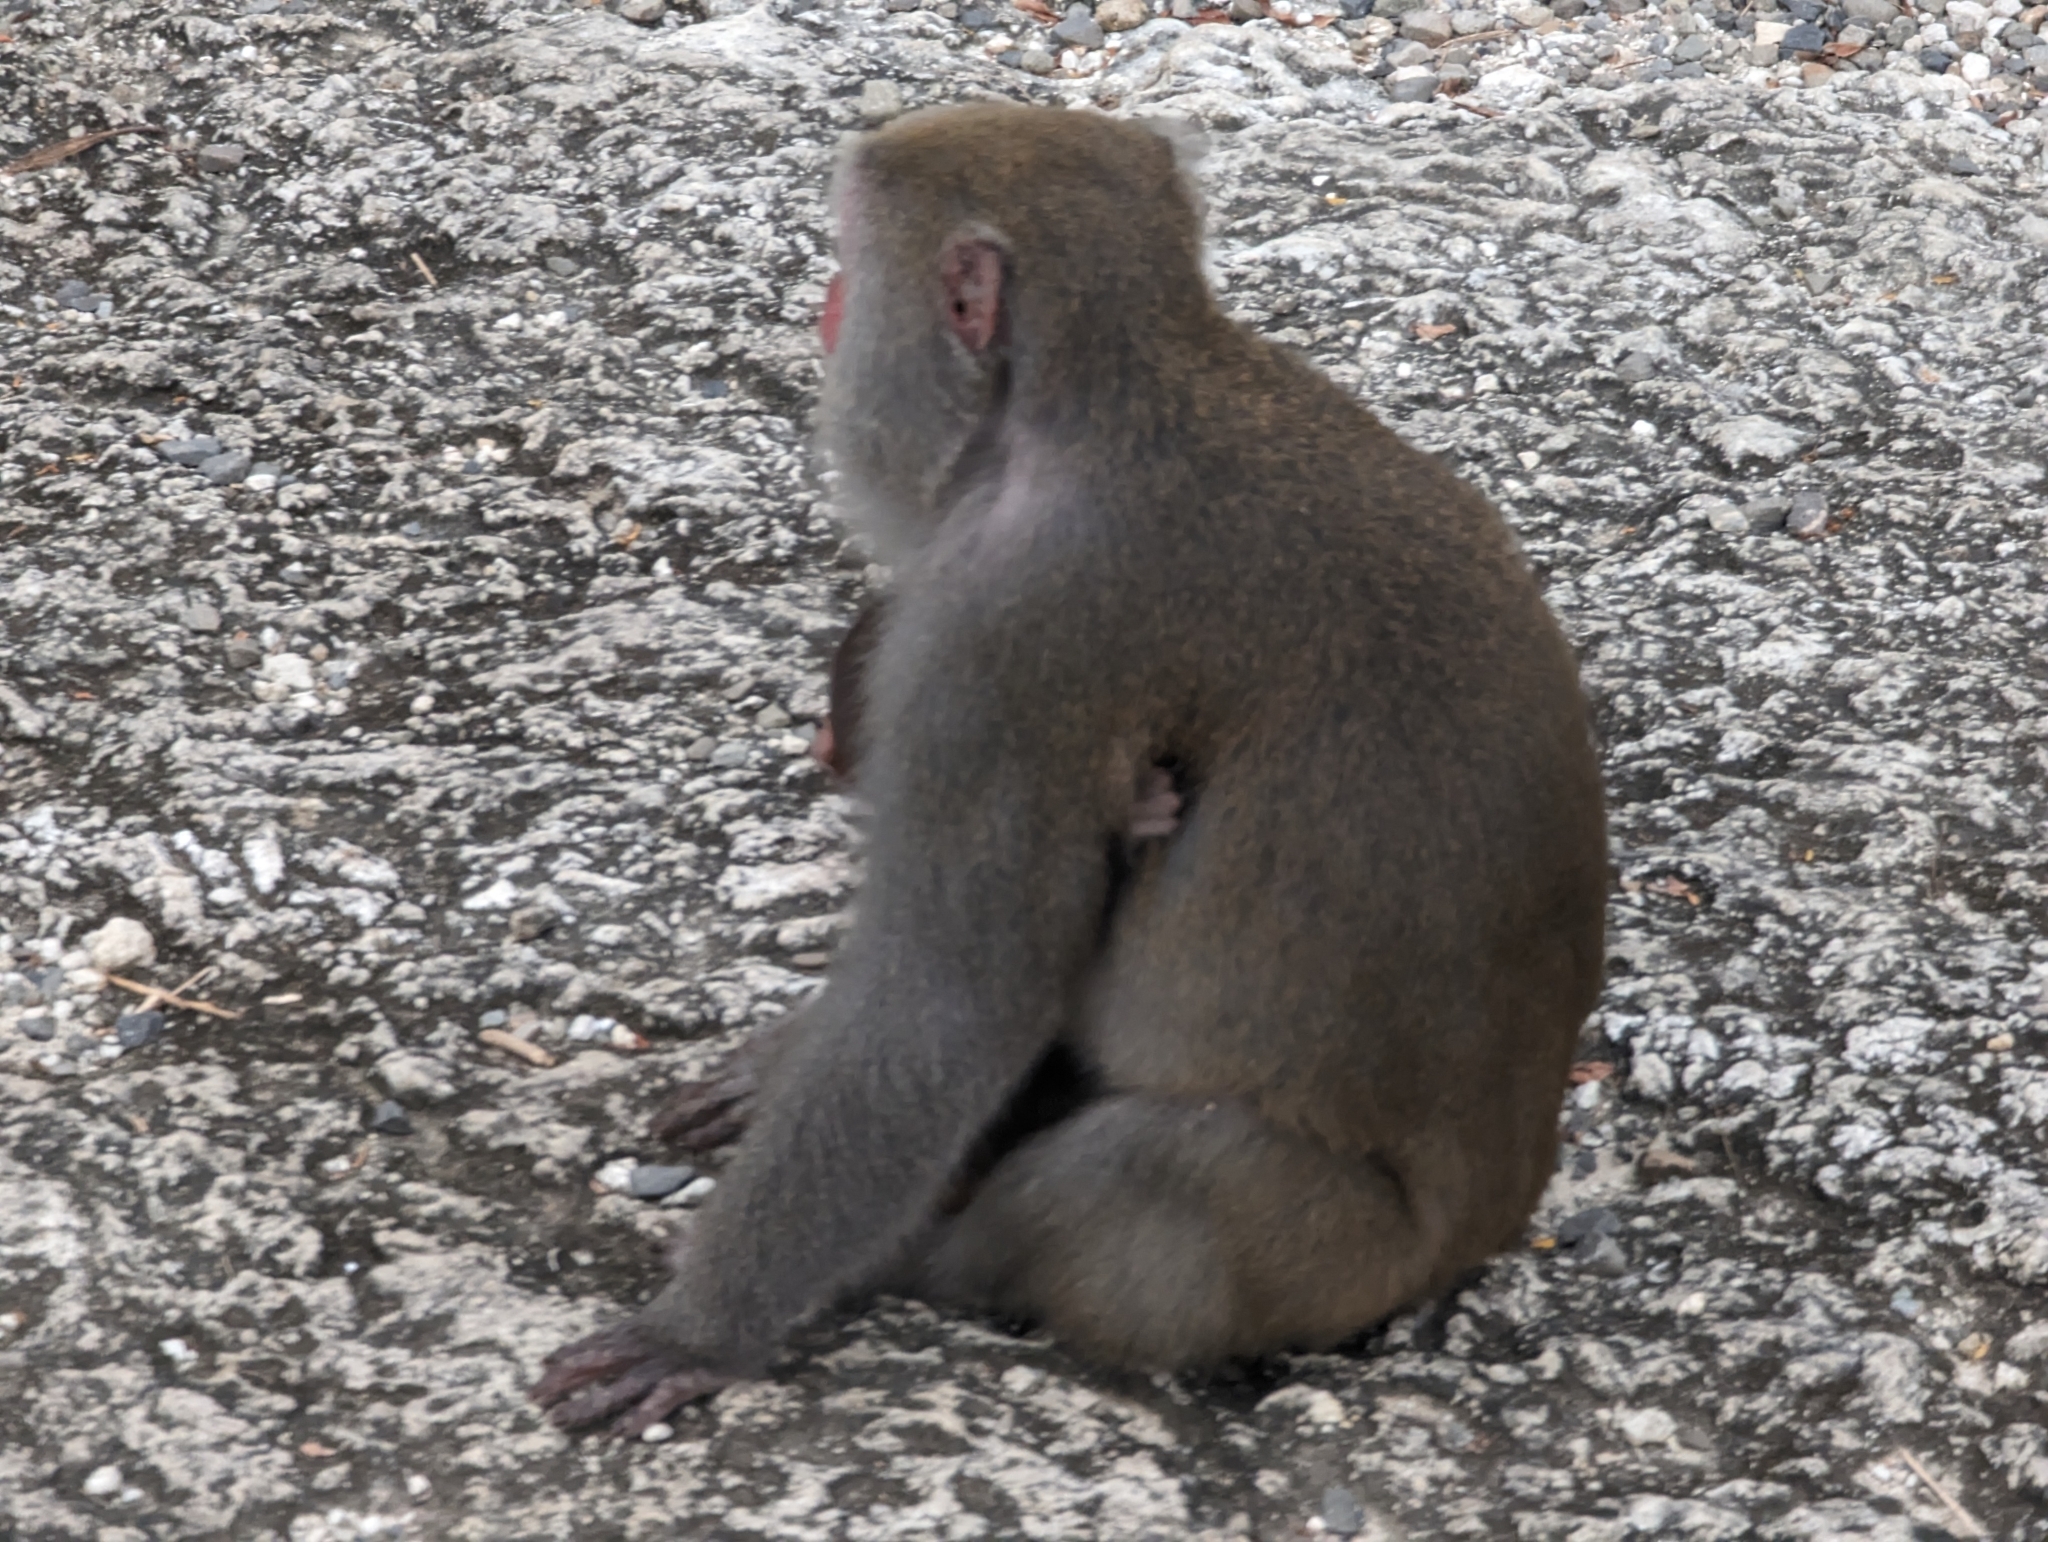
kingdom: Animalia
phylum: Chordata
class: Mammalia
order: Primates
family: Cercopithecidae
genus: Macaca
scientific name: Macaca cyclopis
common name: Formosan rock macaque
